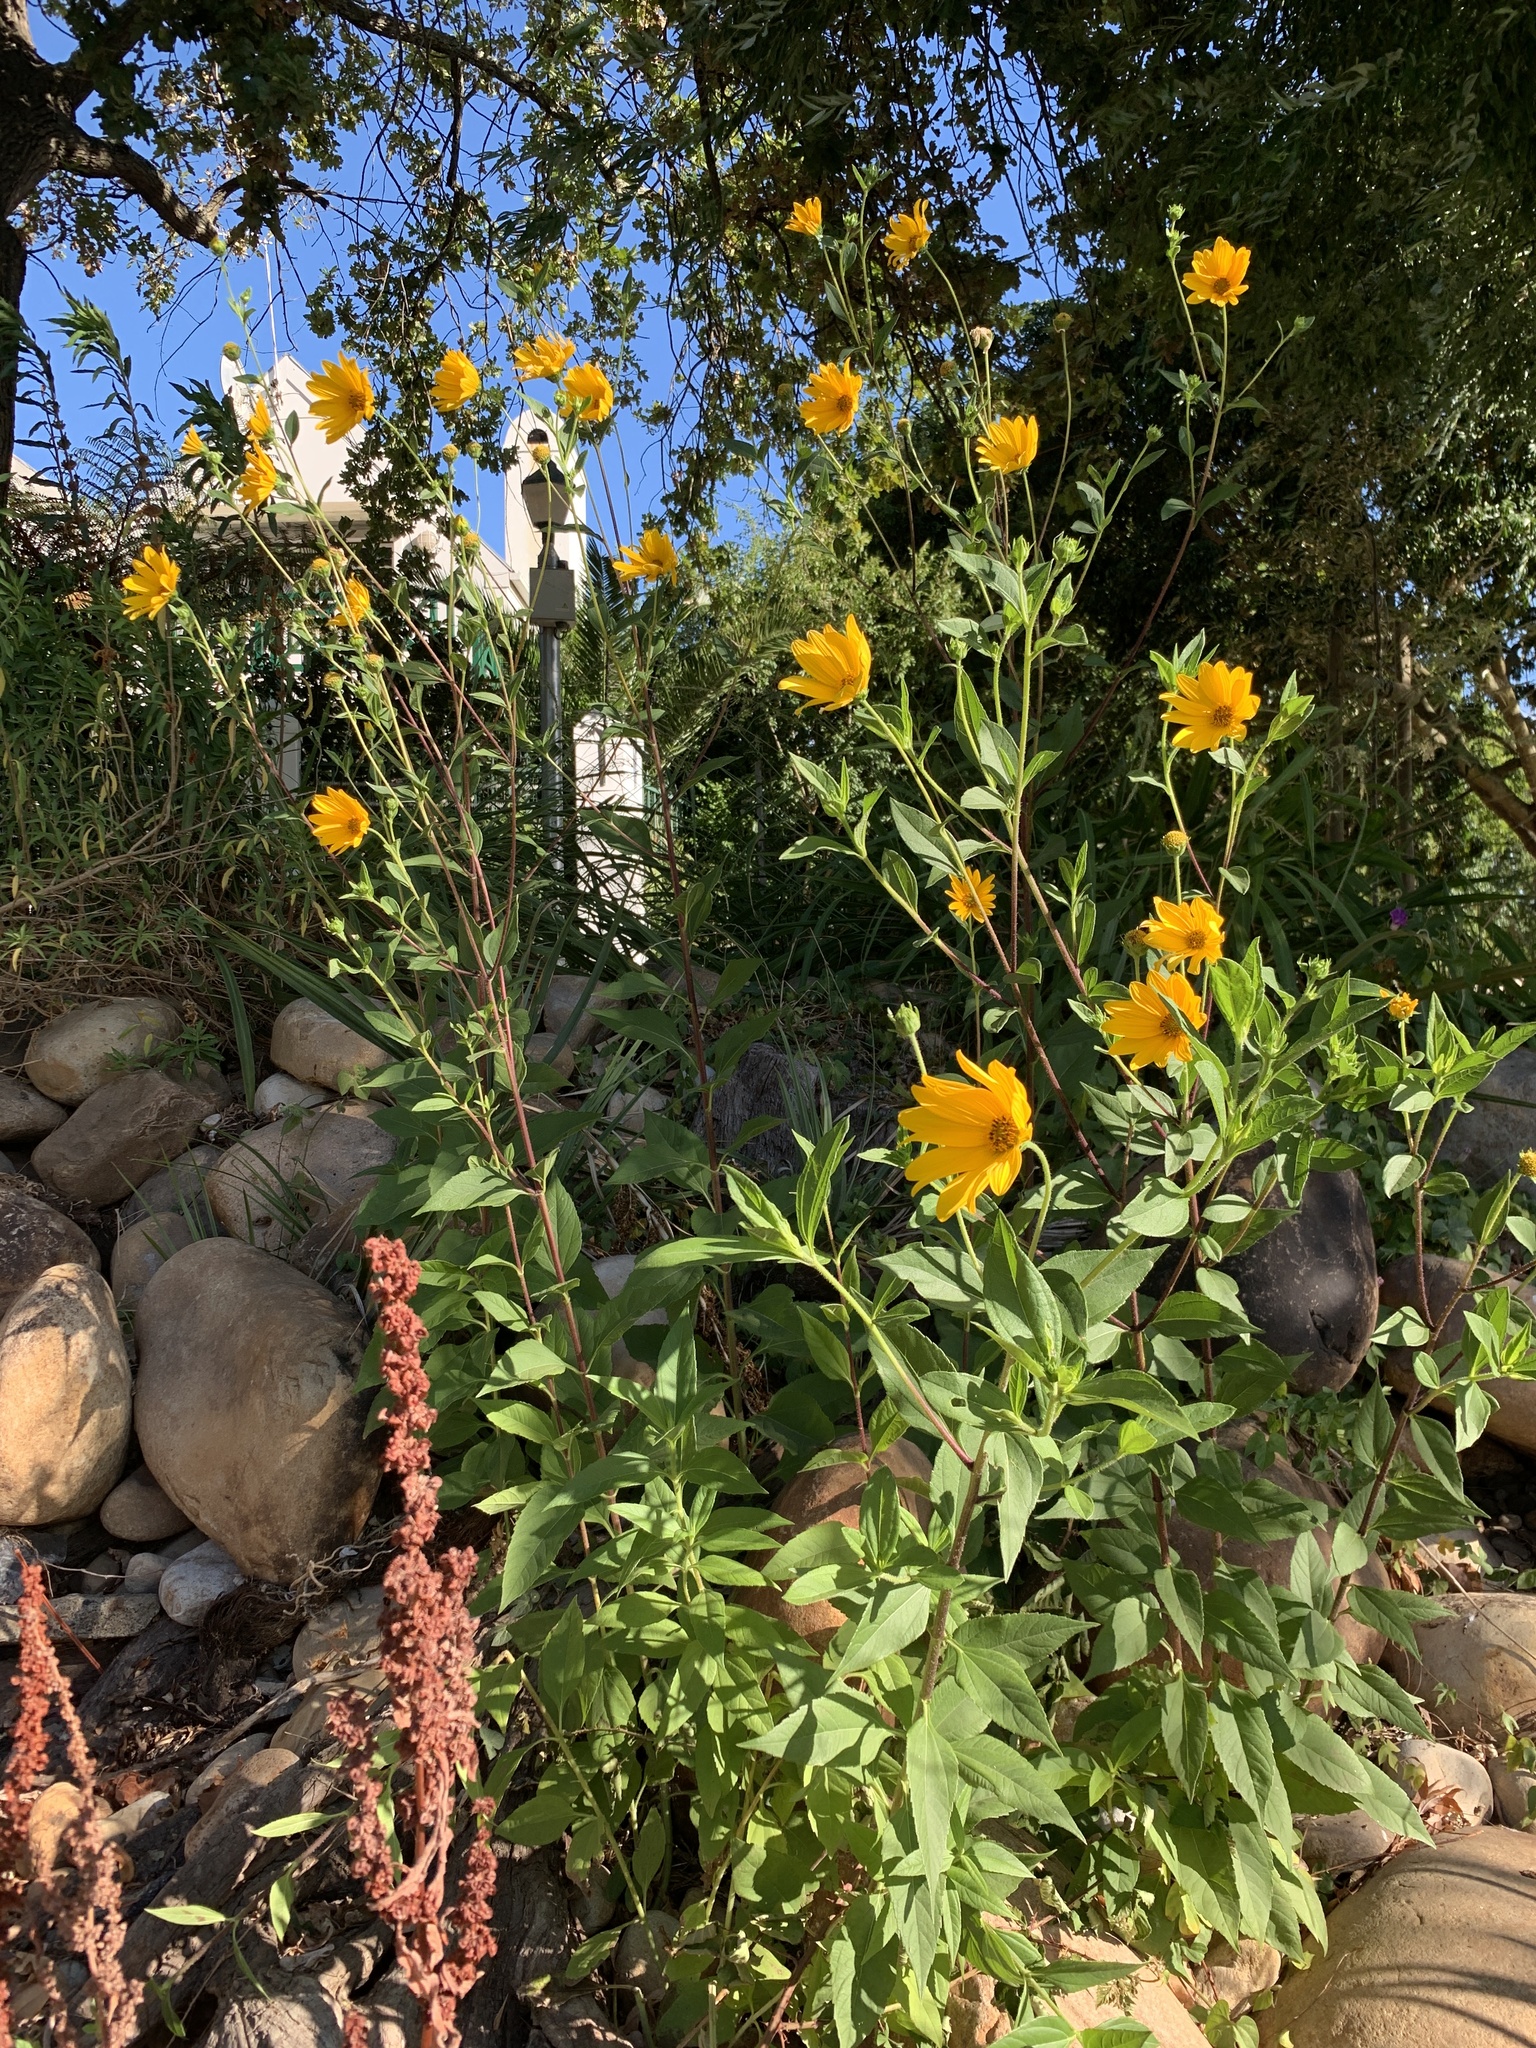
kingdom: Plantae
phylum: Tracheophyta
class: Magnoliopsida
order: Asterales
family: Asteraceae
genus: Helianthus
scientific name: Helianthus tuberosus
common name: Jerusalem artichoke
